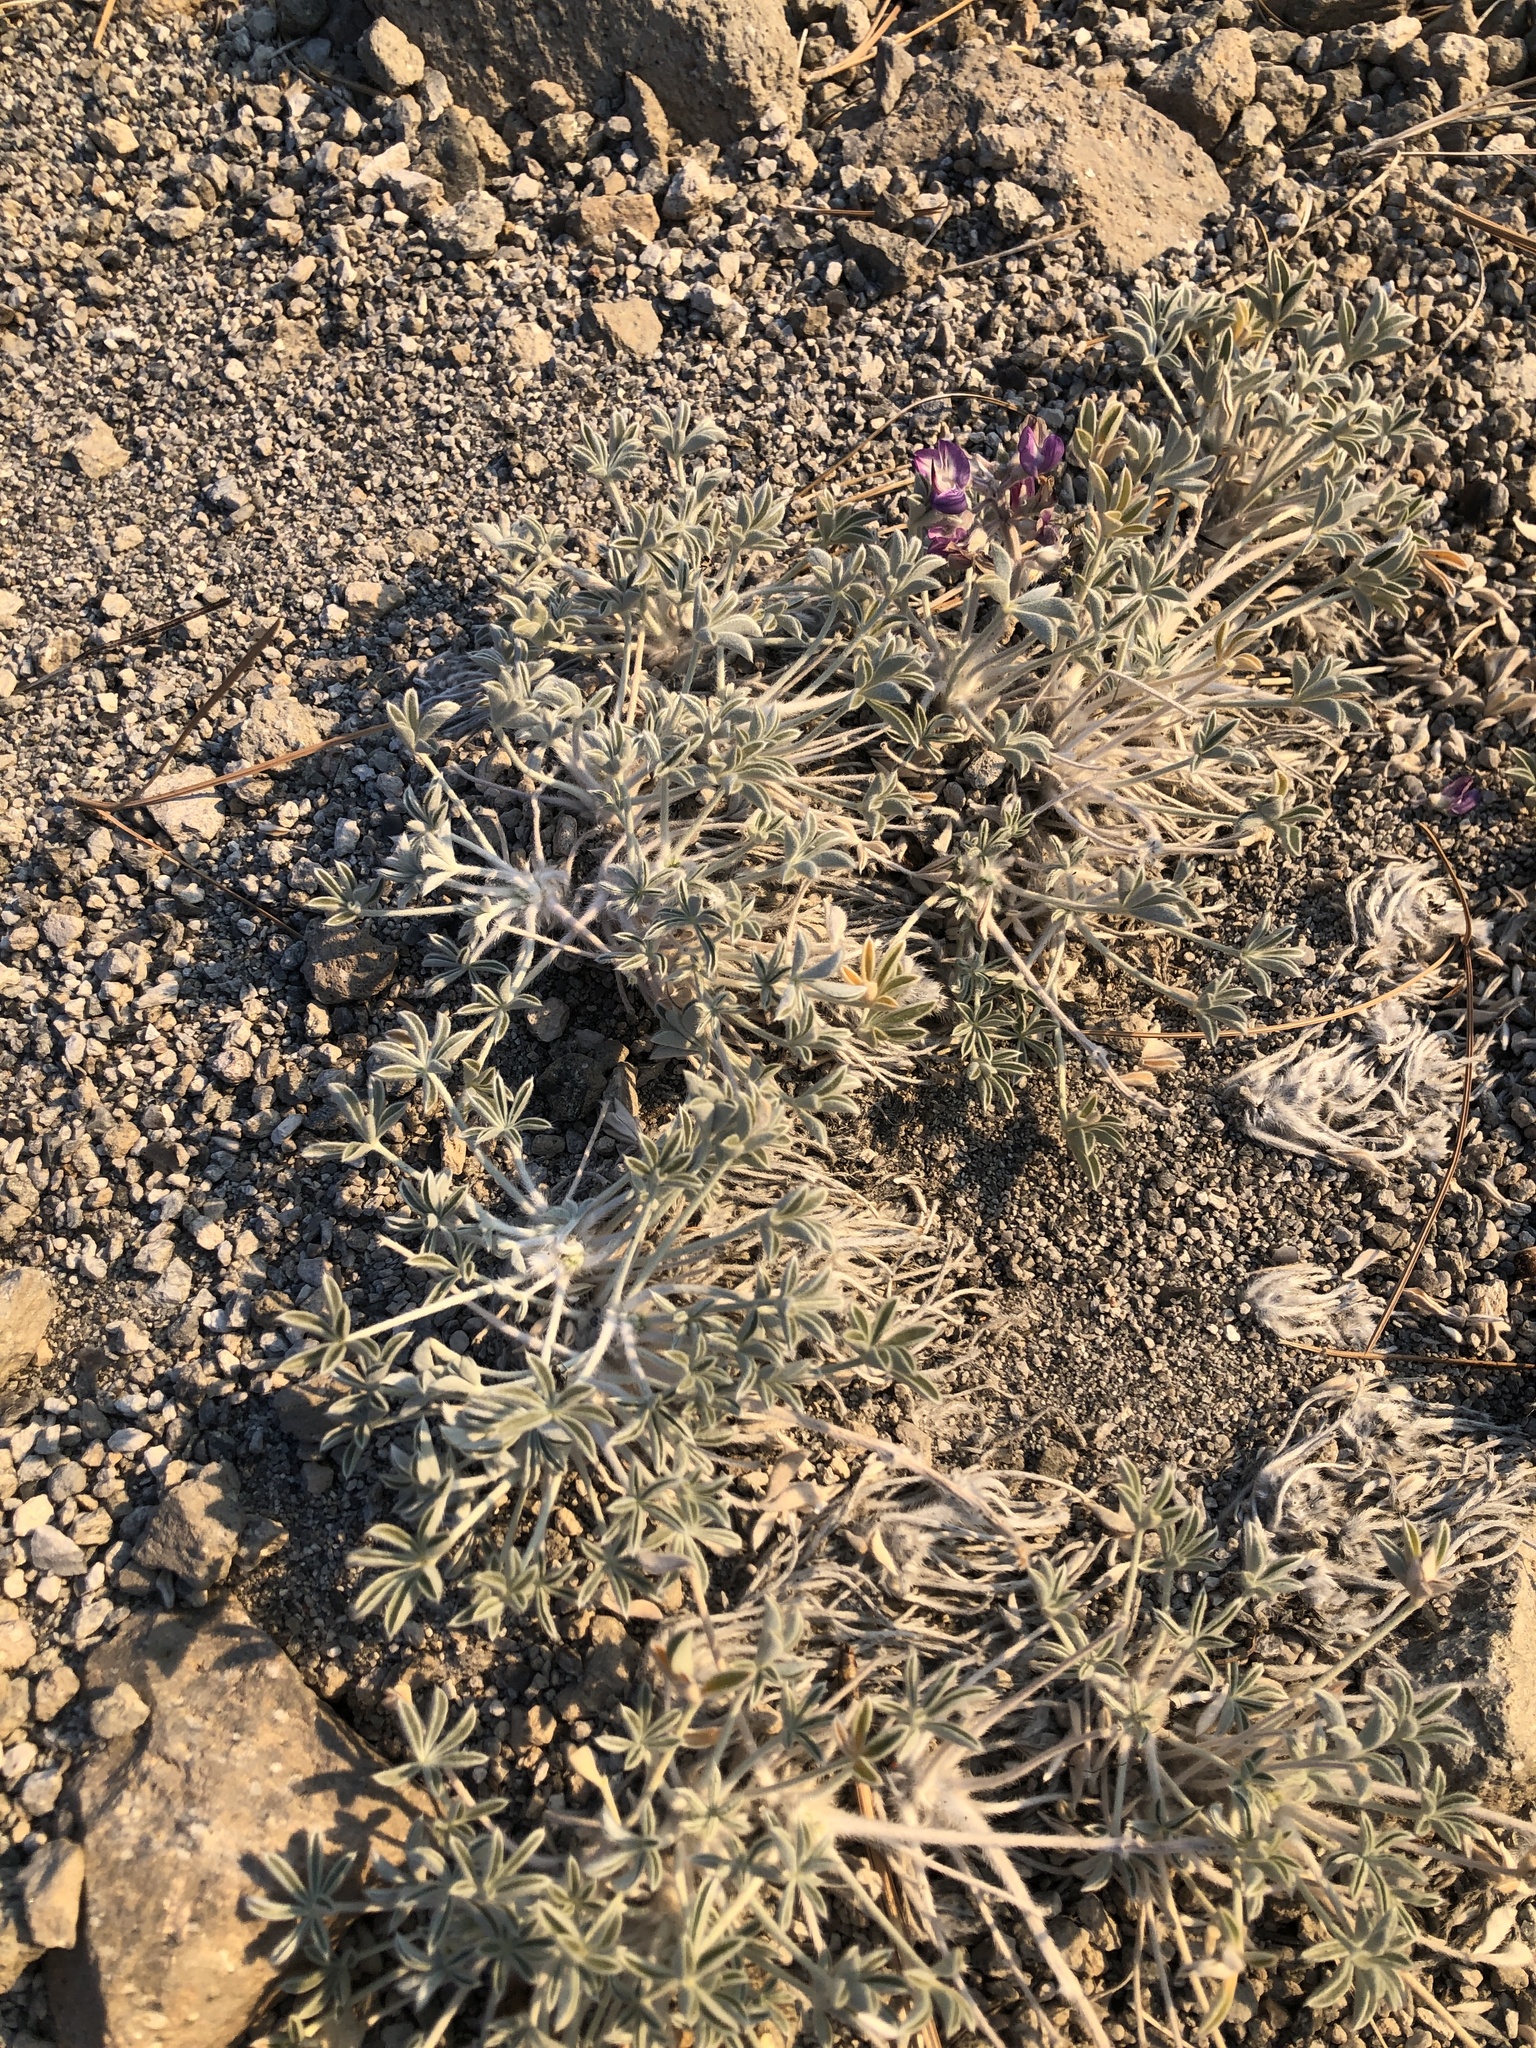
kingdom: Plantae
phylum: Tracheophyta
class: Magnoliopsida
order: Fabales
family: Fabaceae
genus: Lupinus
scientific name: Lupinus duranii
